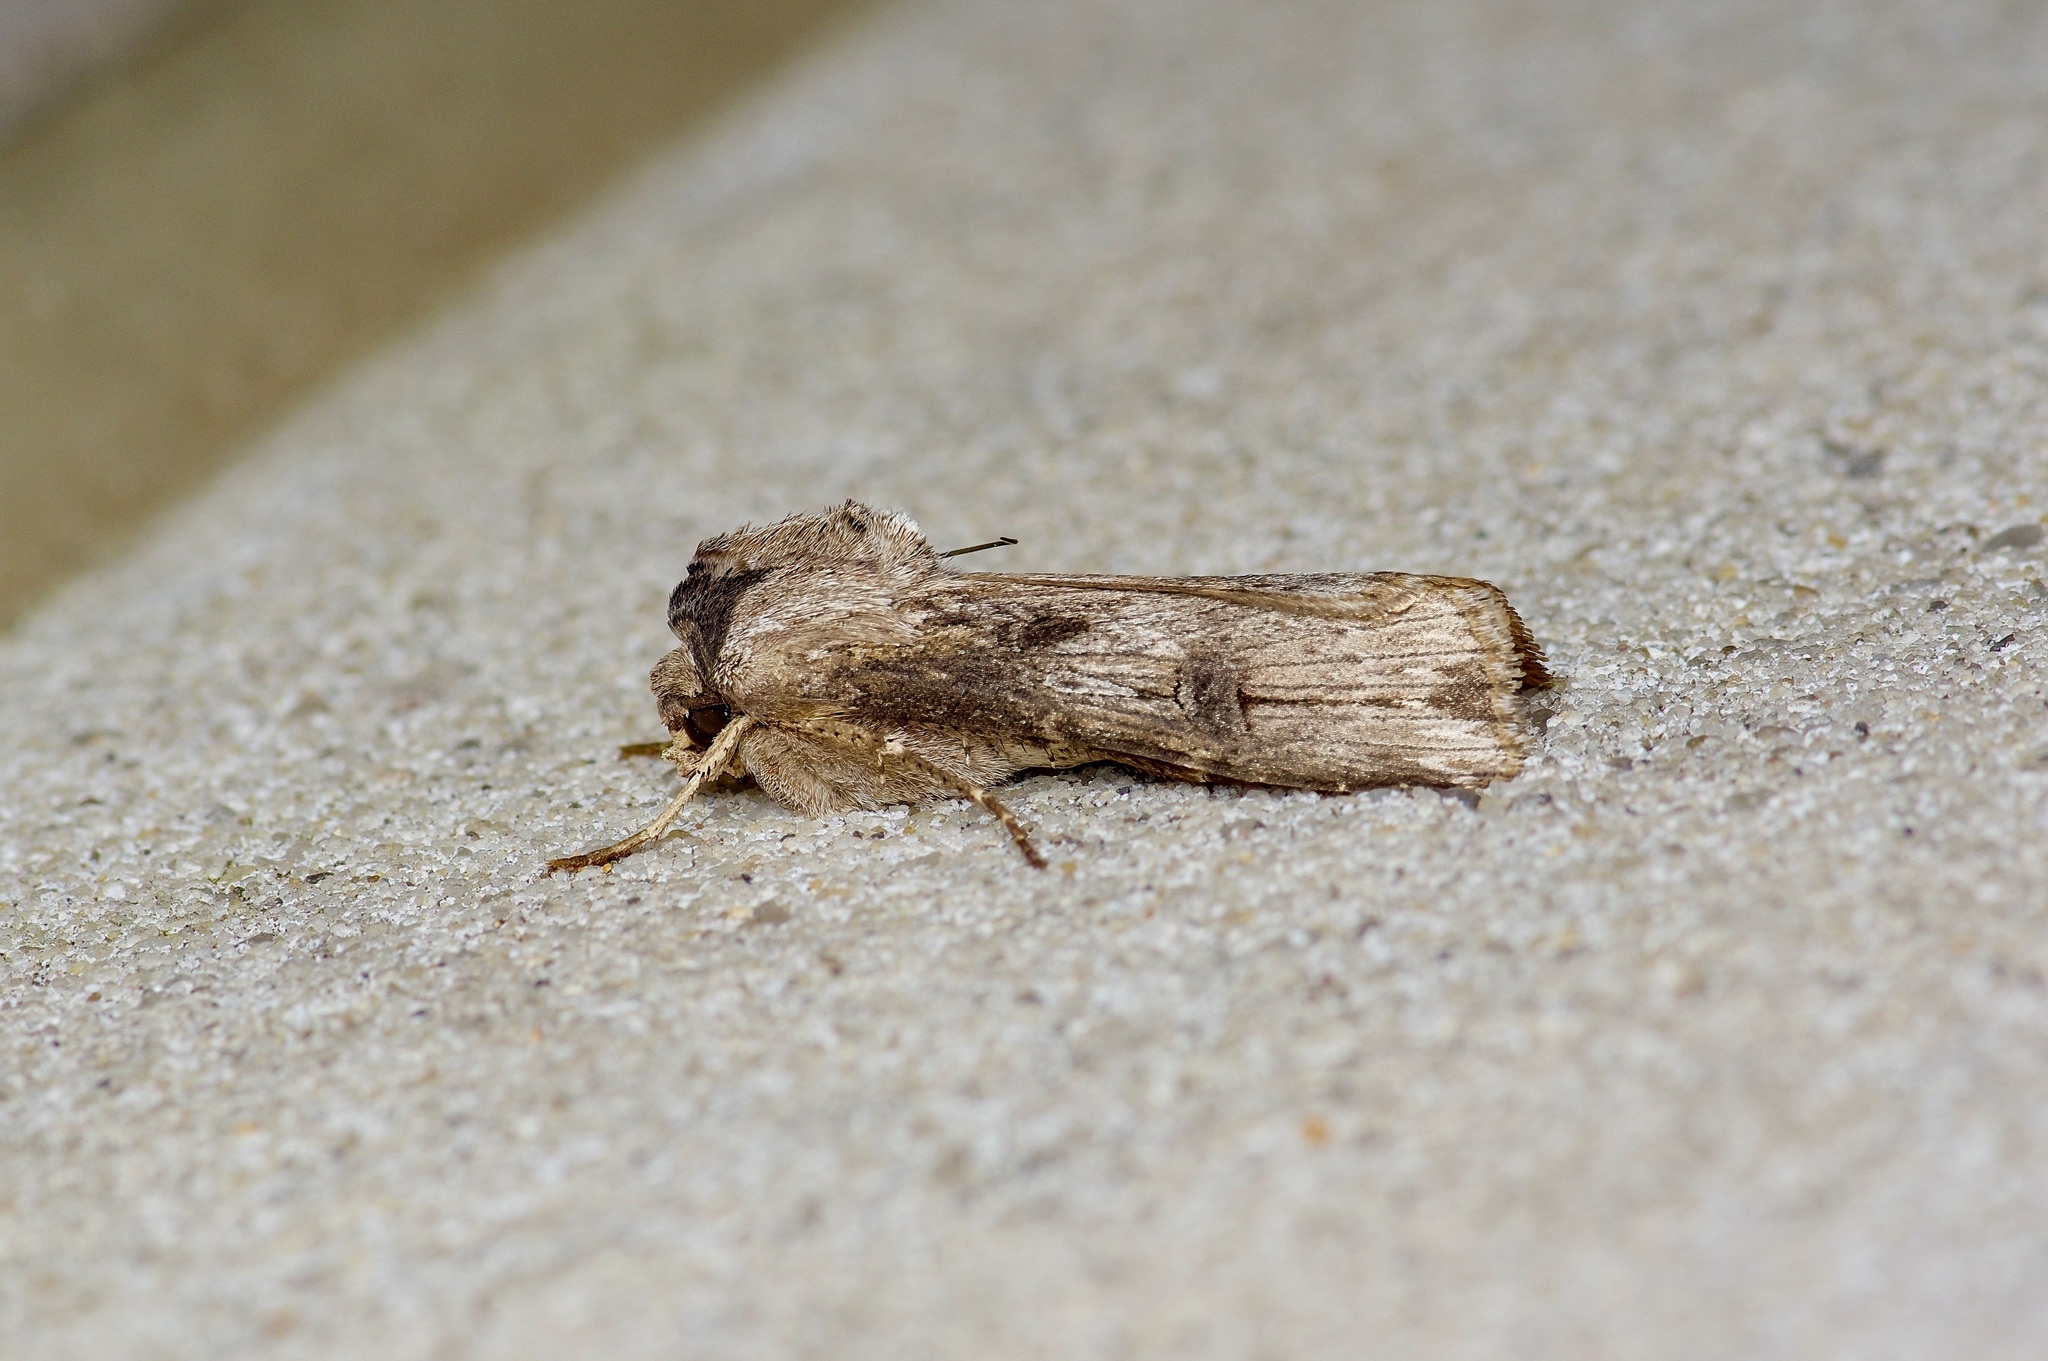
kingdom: Animalia
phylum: Arthropoda
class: Insecta
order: Lepidoptera
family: Noctuidae
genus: Agrotis
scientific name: Agrotis malefida
